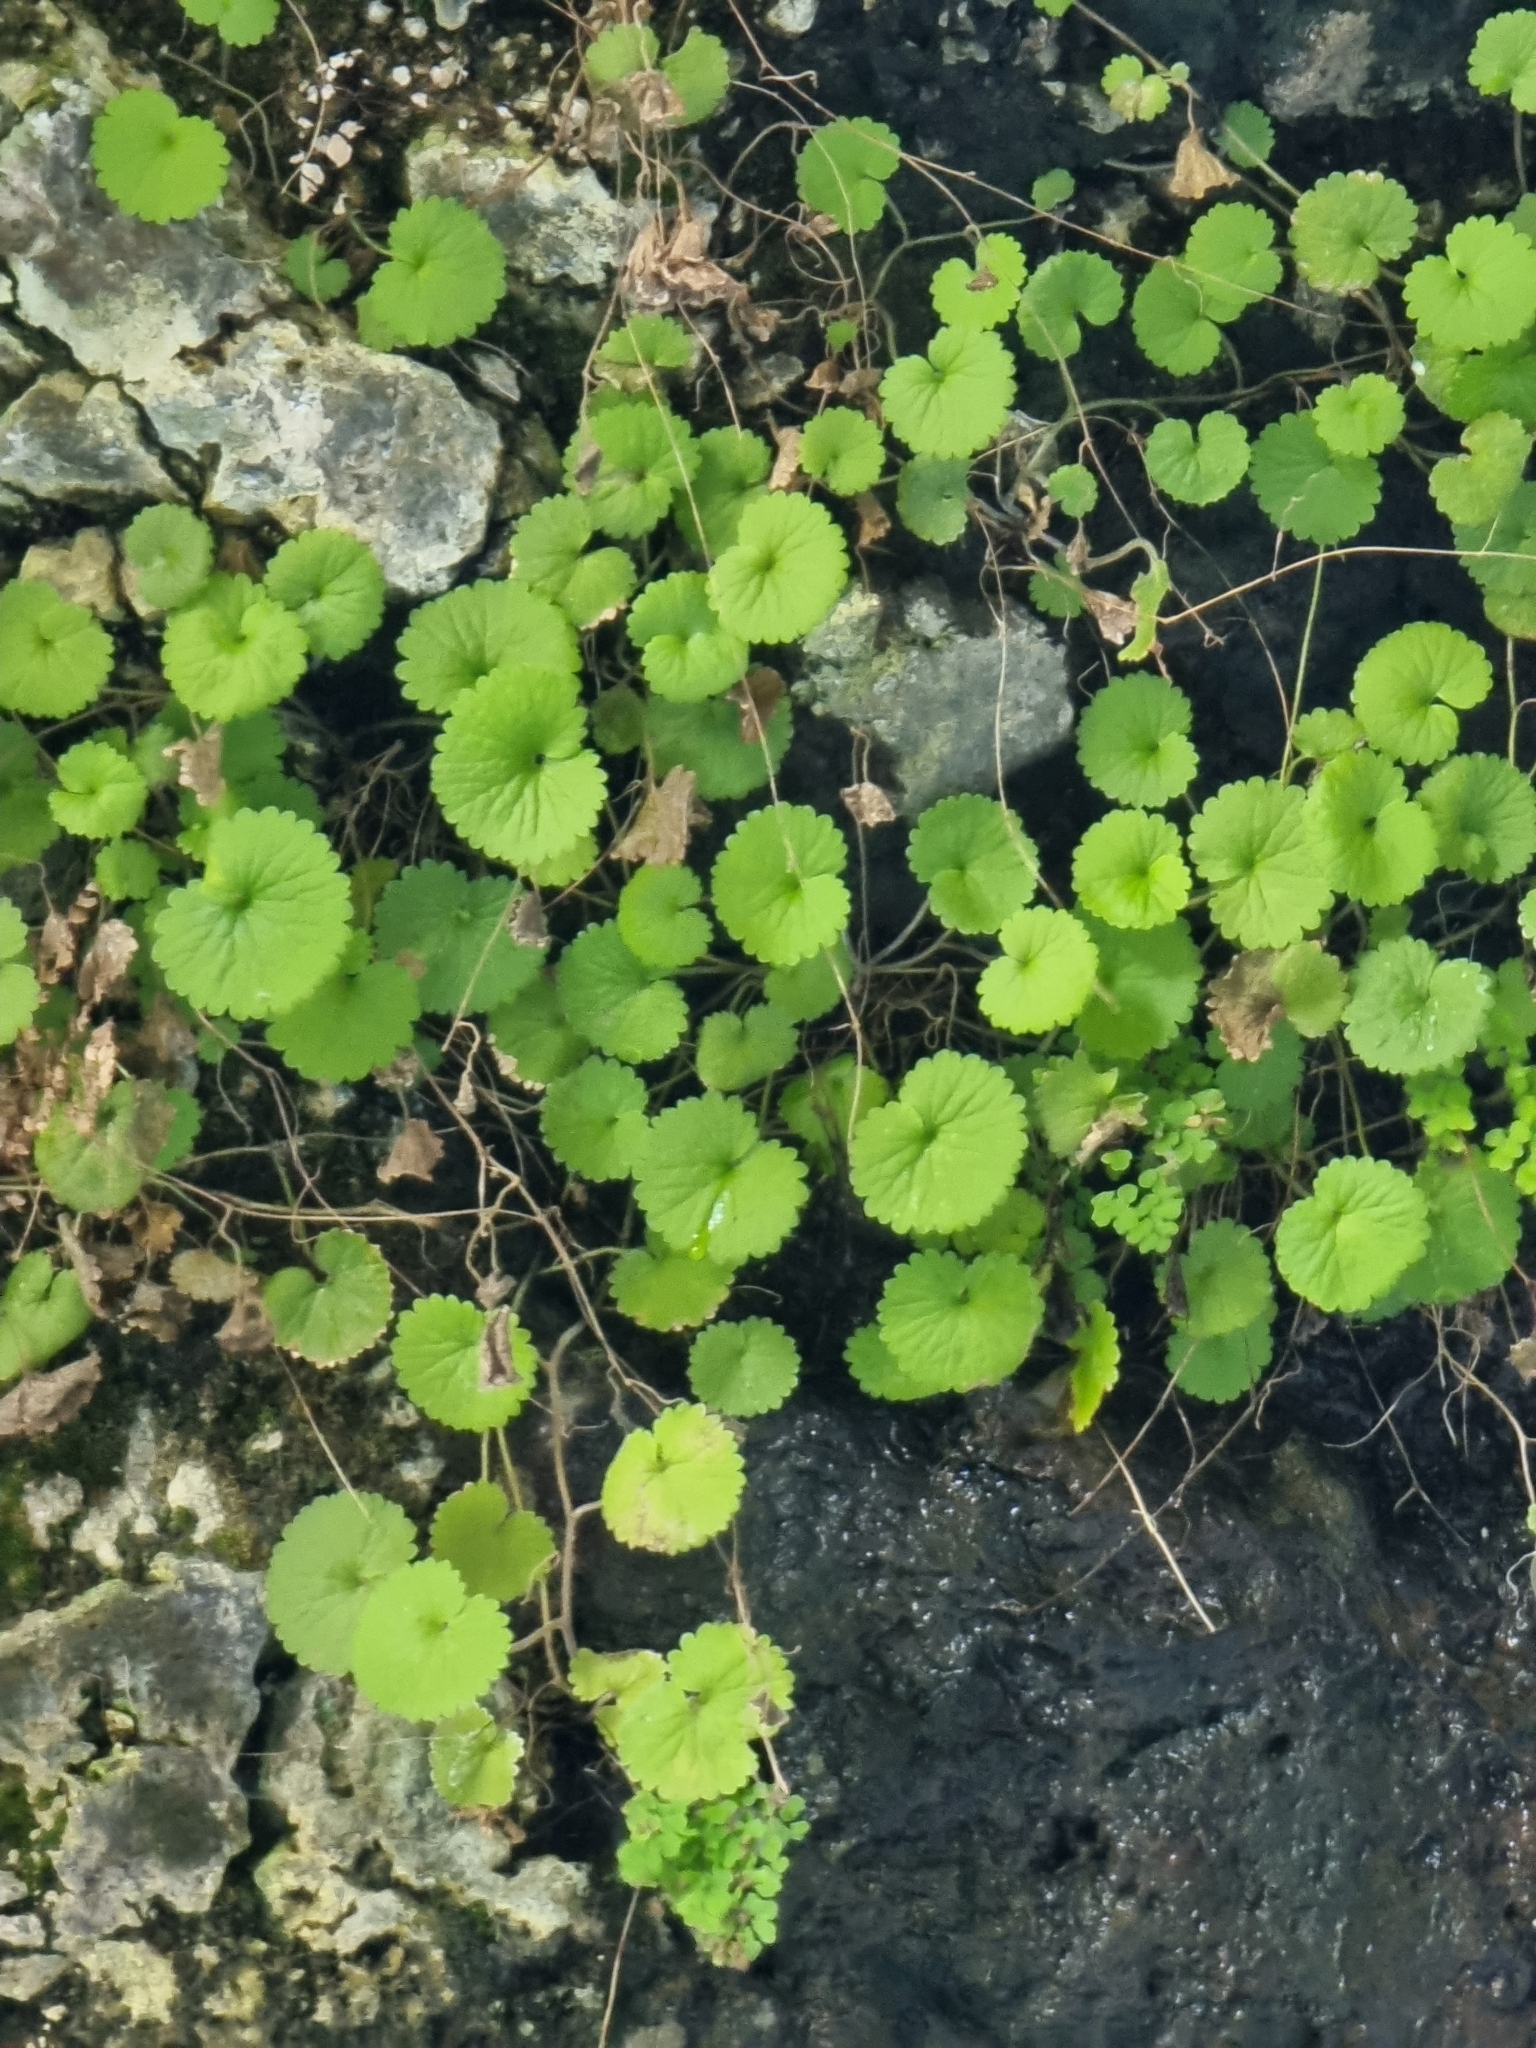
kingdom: Plantae
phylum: Tracheophyta
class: Magnoliopsida
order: Lamiales
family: Plantaginaceae
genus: Sibthorpia
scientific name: Sibthorpia peregrina
